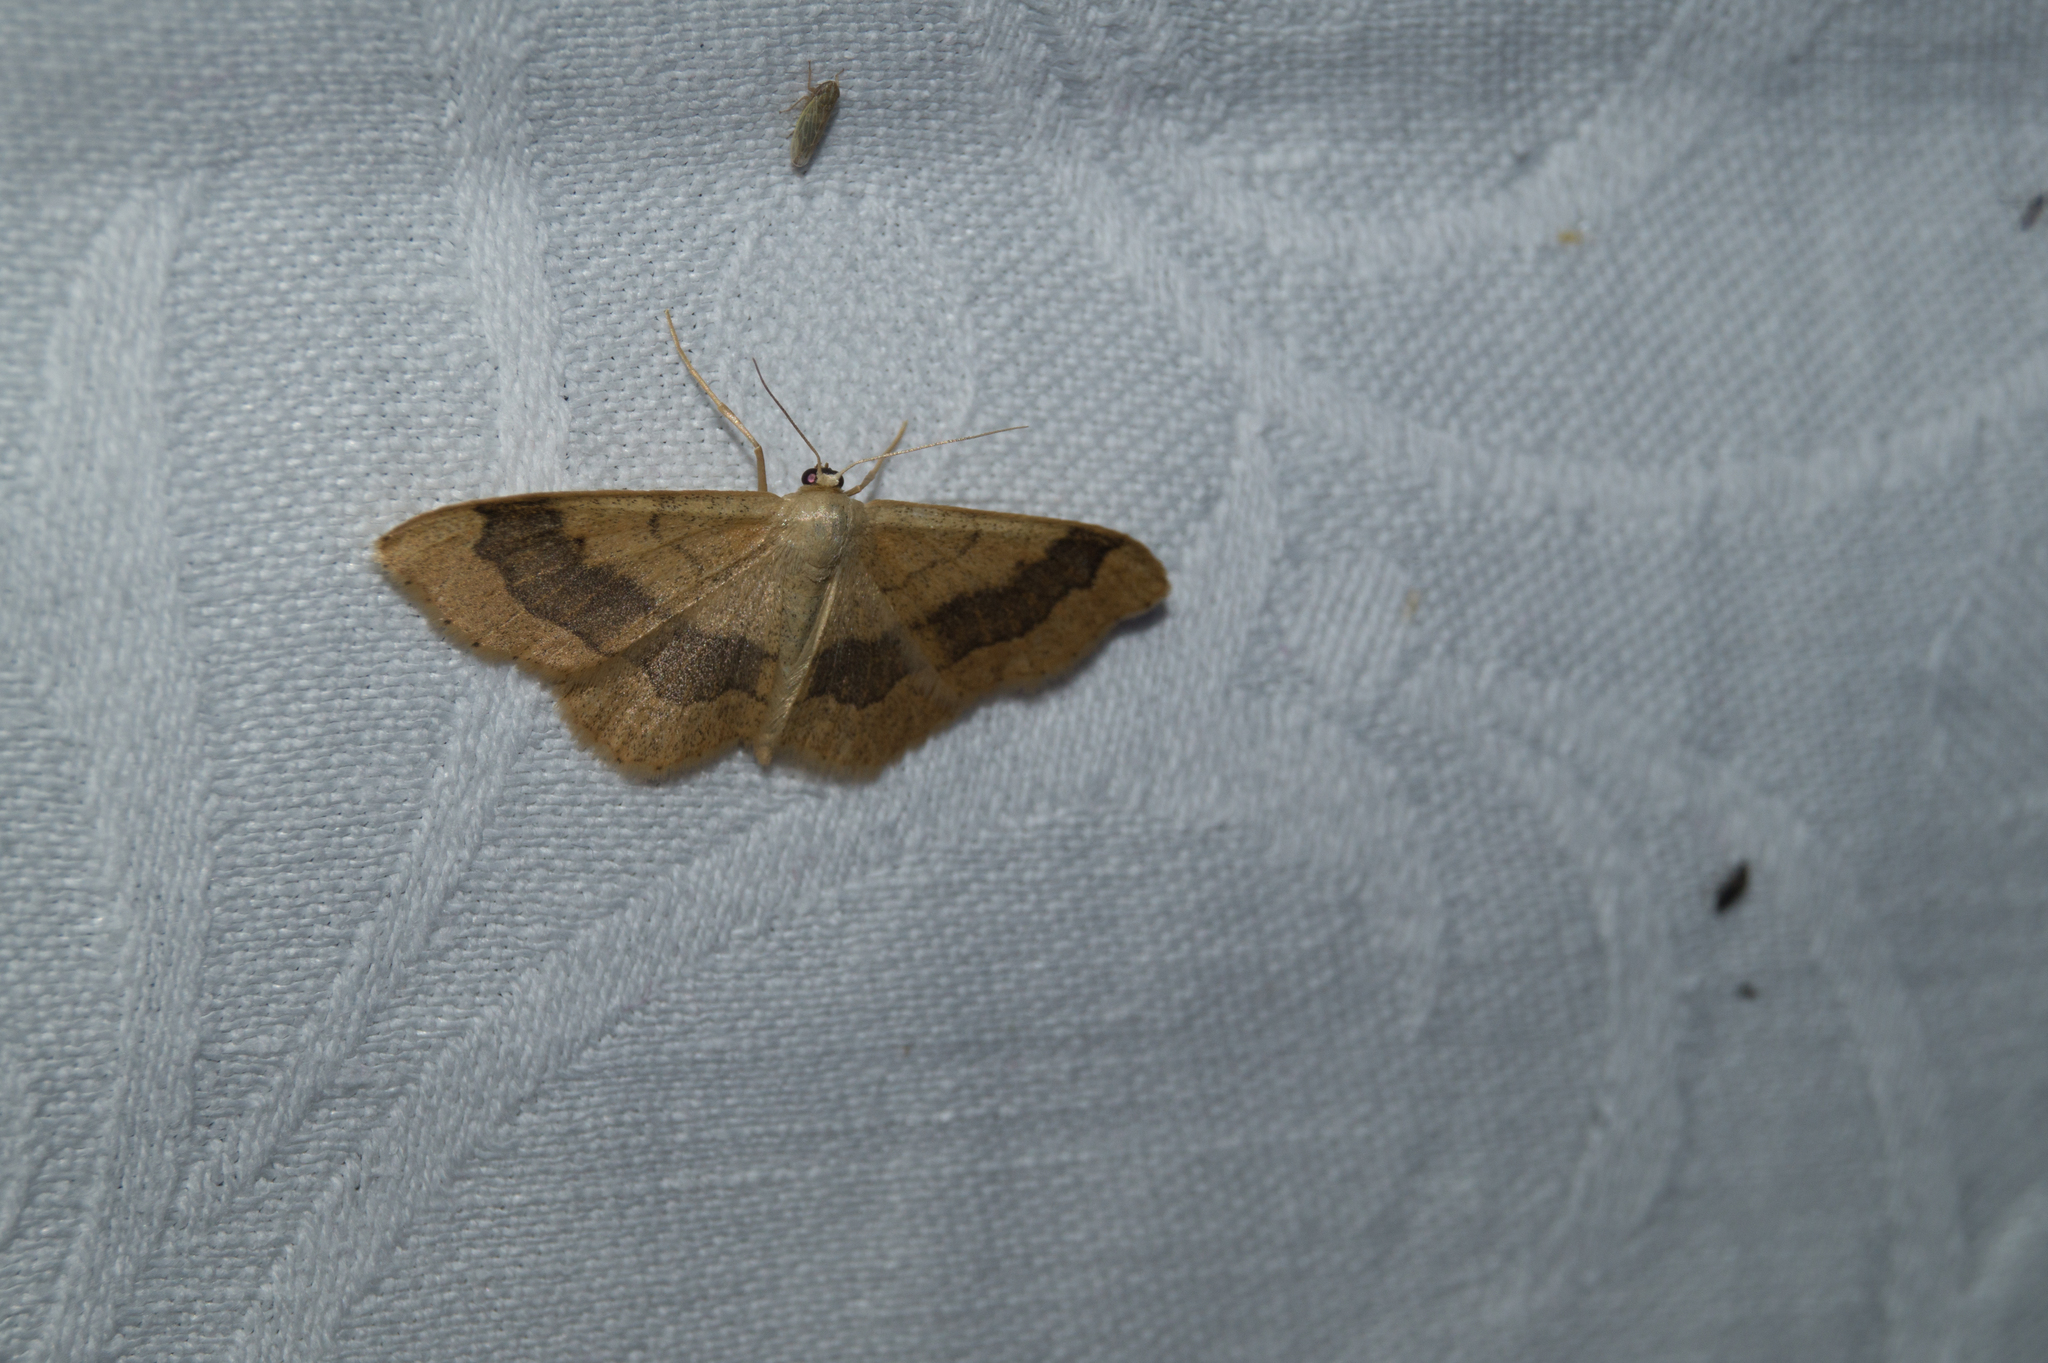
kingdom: Animalia
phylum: Arthropoda
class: Insecta
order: Lepidoptera
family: Geometridae
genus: Idaea
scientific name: Idaea aversata
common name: Riband wave
